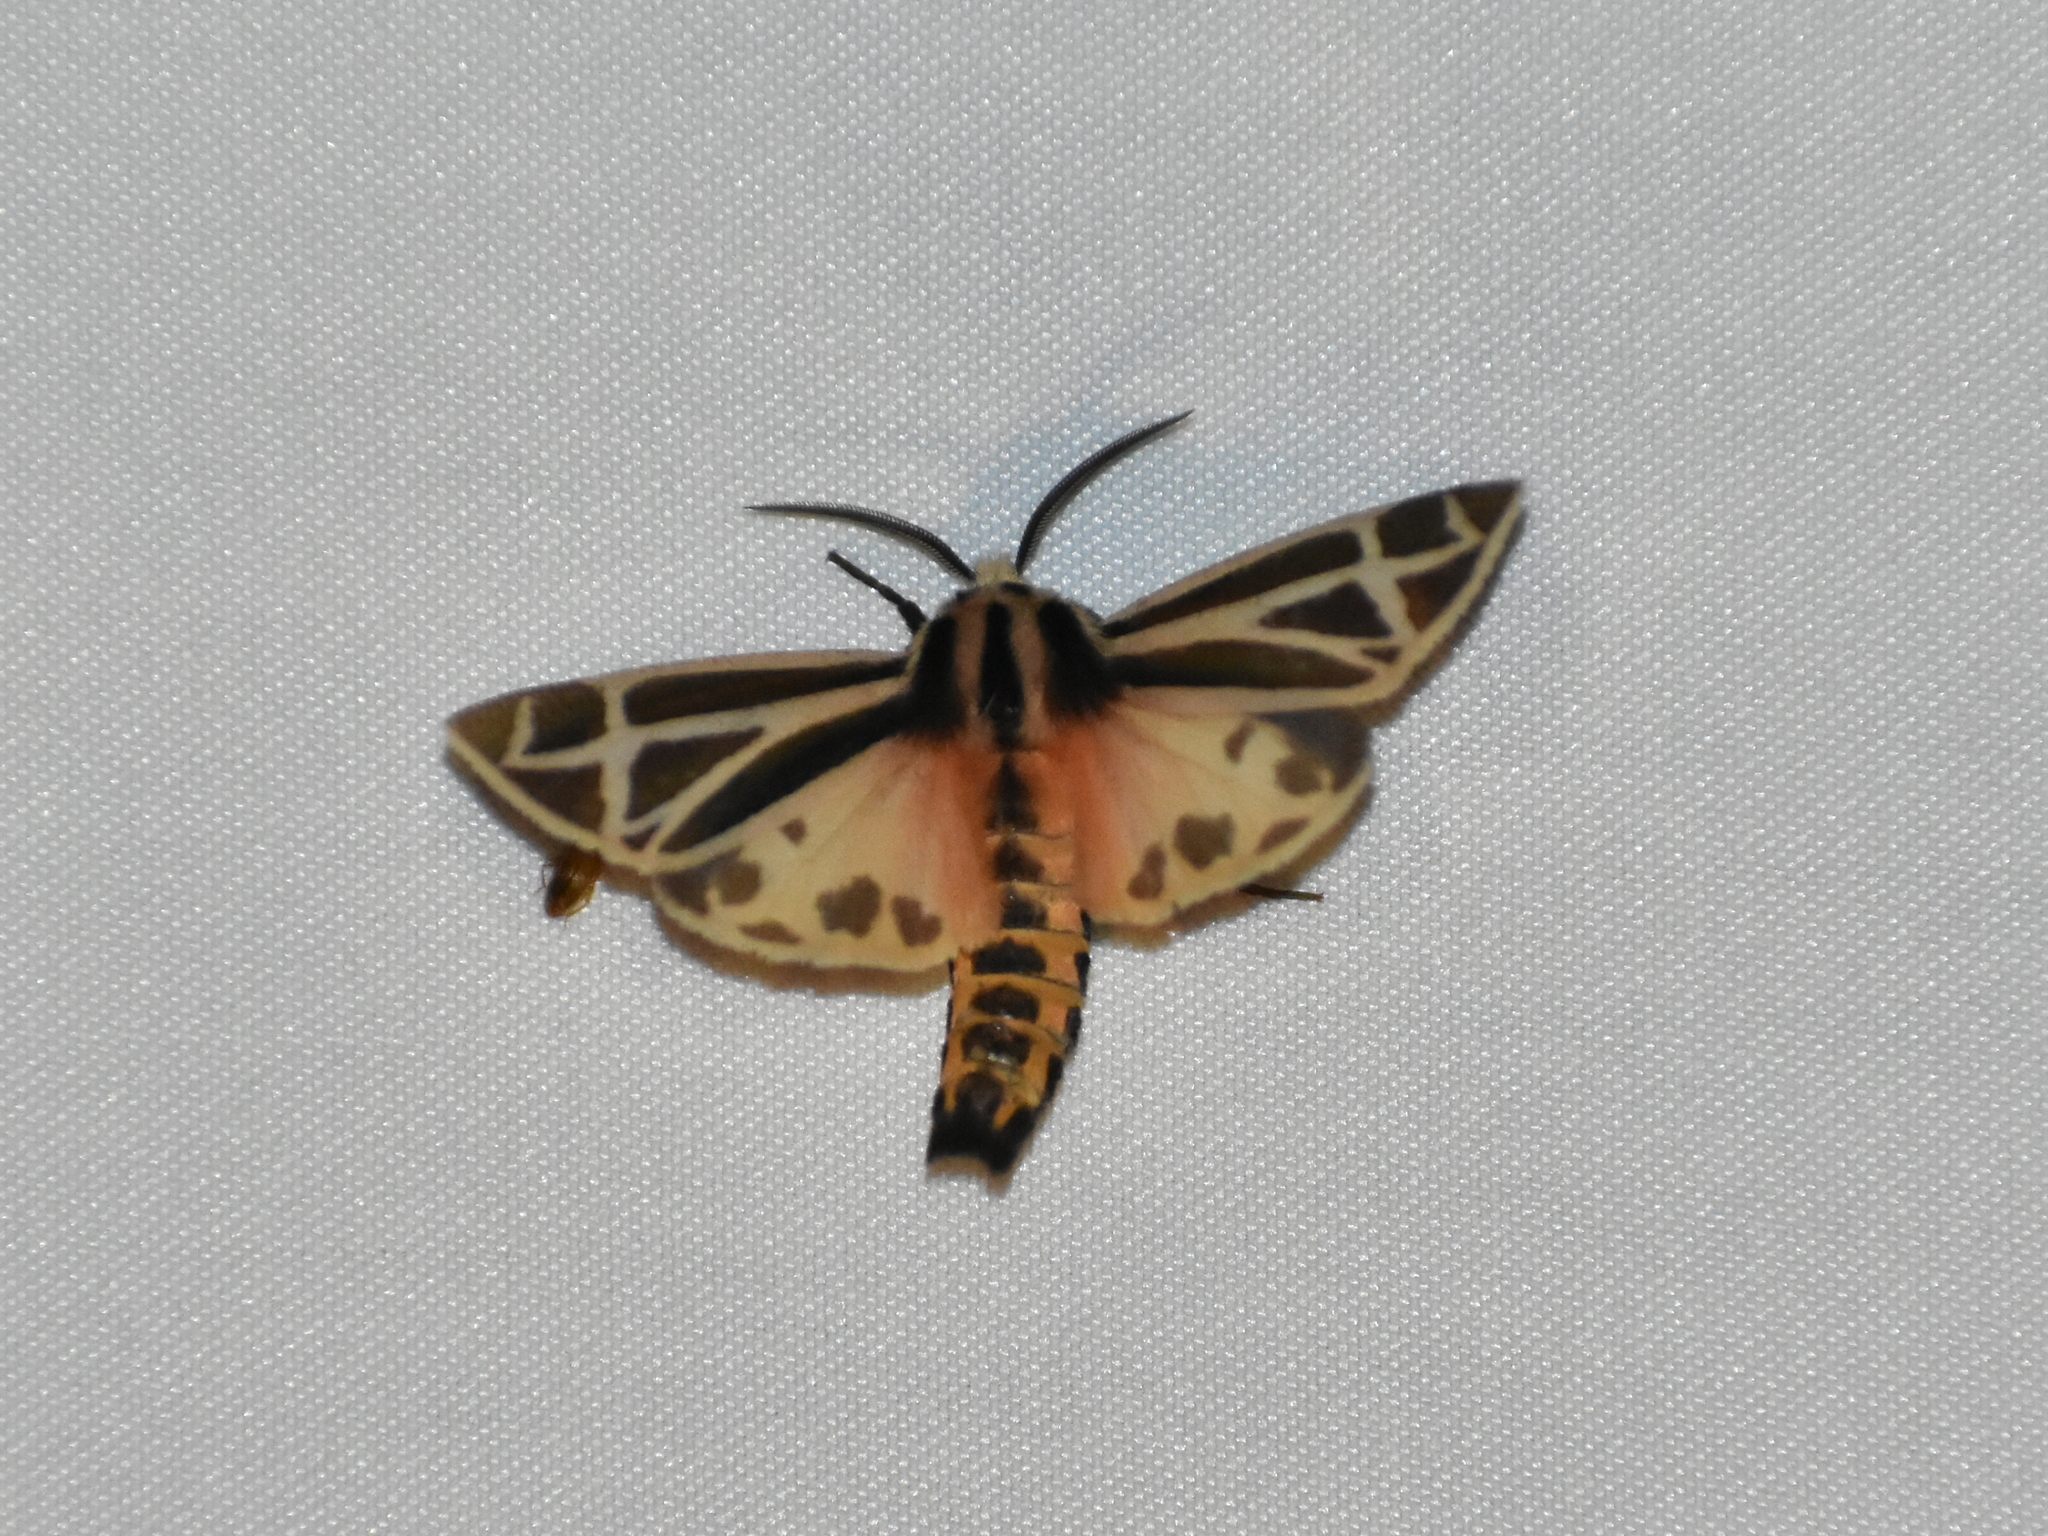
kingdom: Animalia
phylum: Arthropoda
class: Insecta
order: Lepidoptera
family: Erebidae
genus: Apantesis
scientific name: Apantesis phalerata
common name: Harnessed tiger moth
